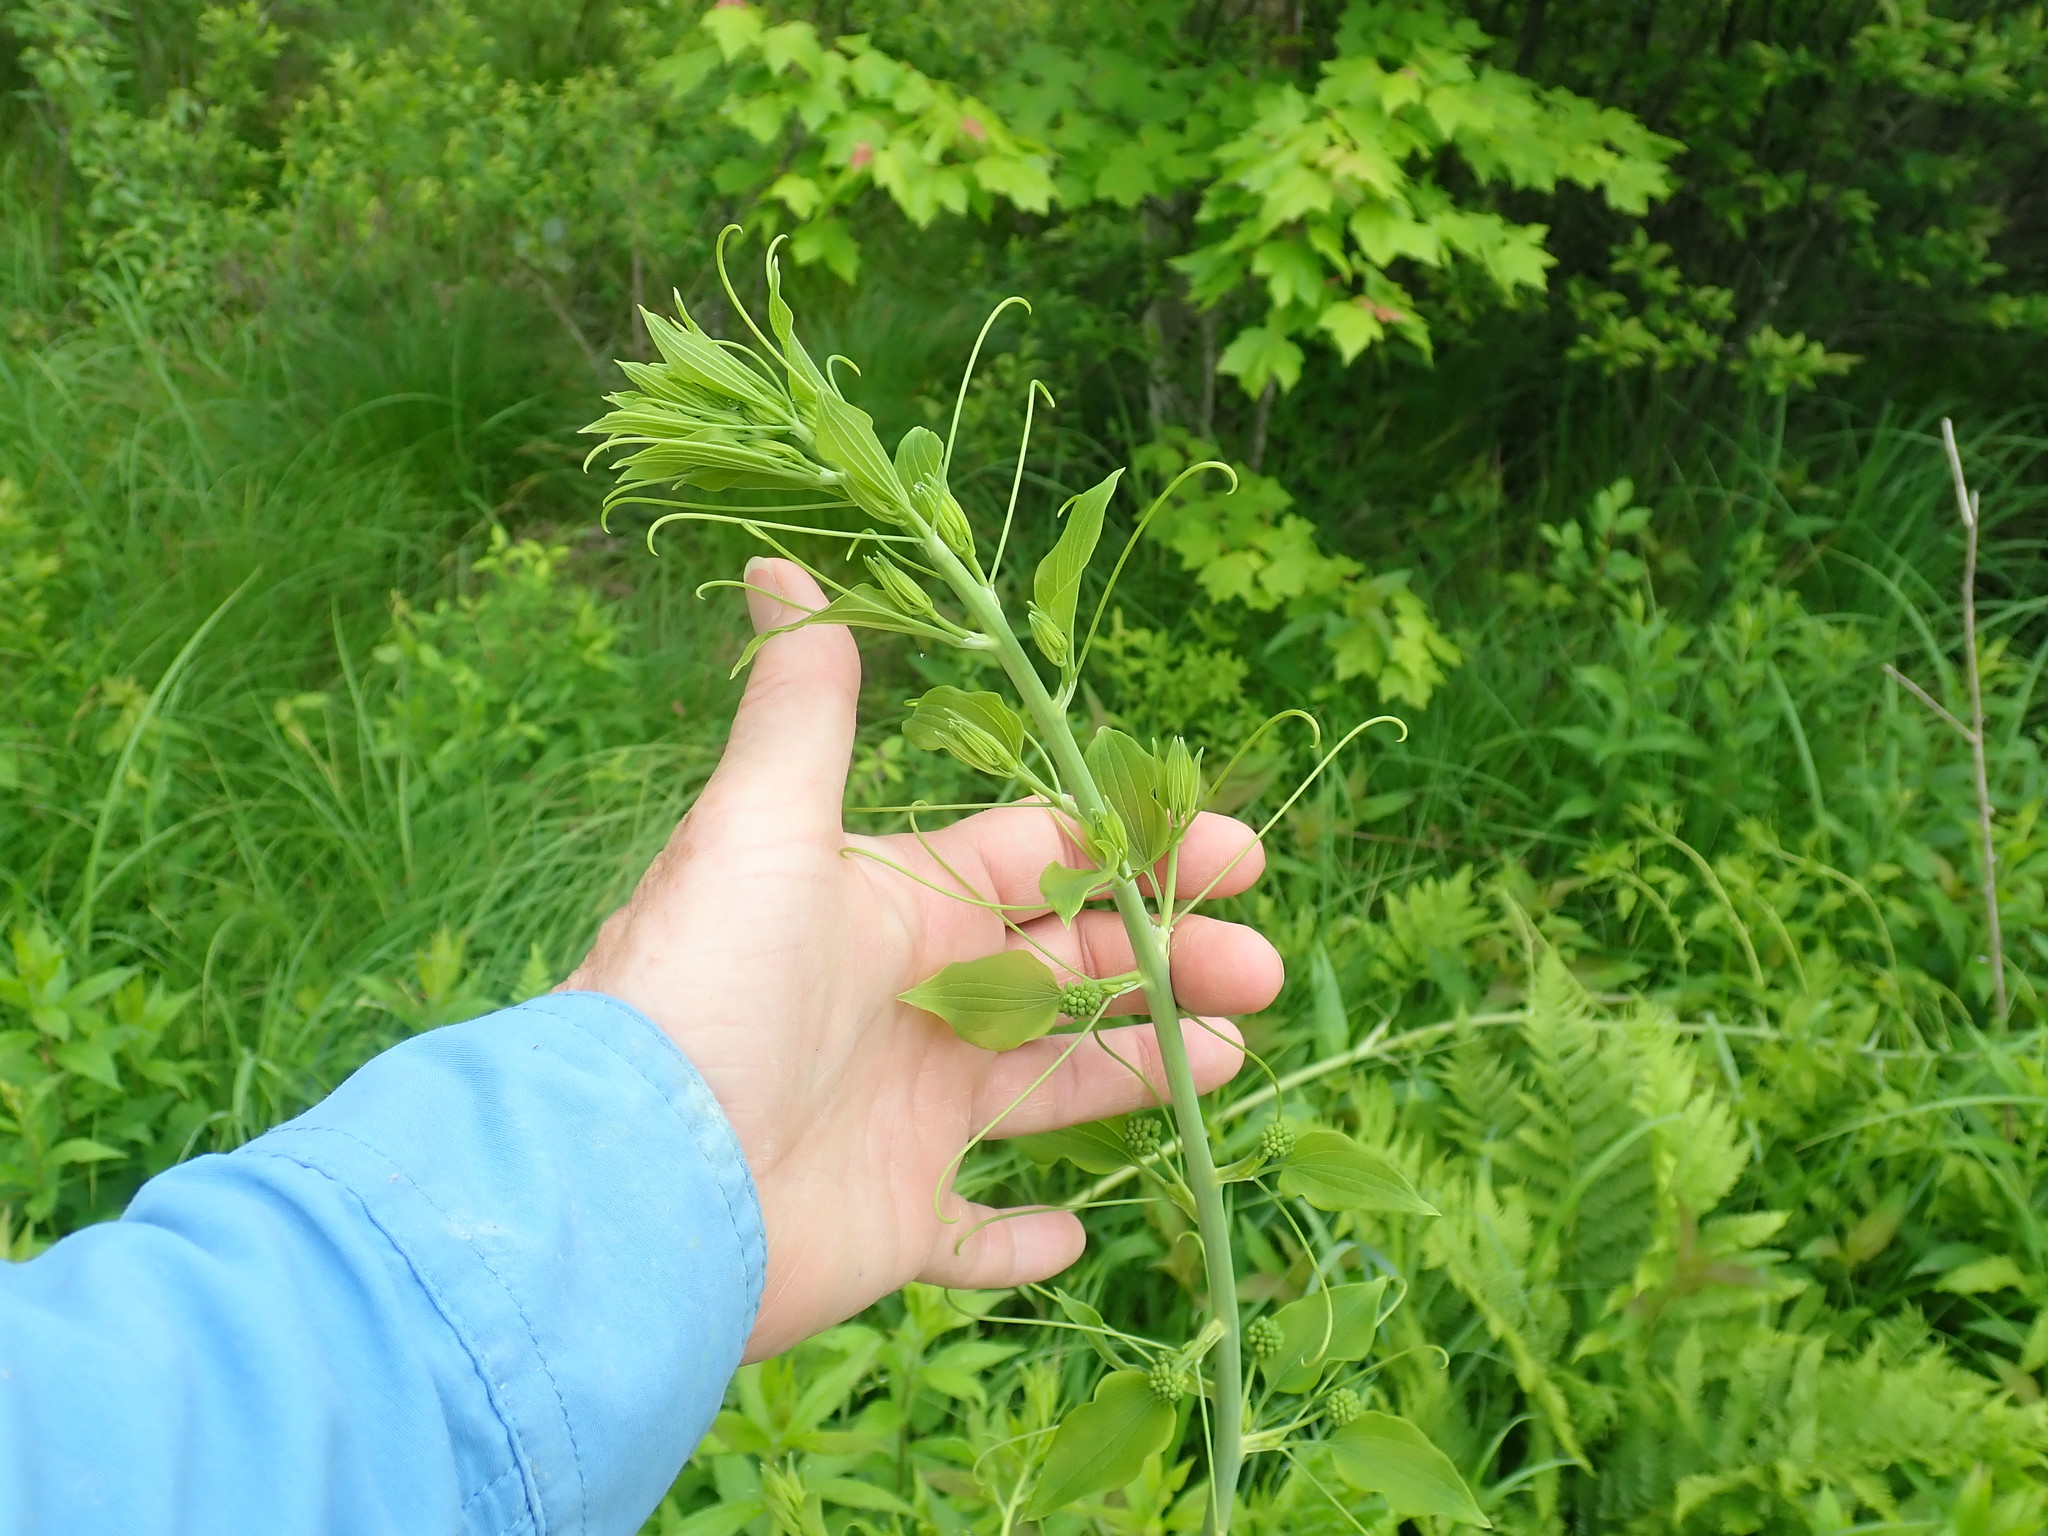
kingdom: Plantae
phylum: Tracheophyta
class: Liliopsida
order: Liliales
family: Smilacaceae
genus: Smilax
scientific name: Smilax herbacea
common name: Jacob's-ladder
